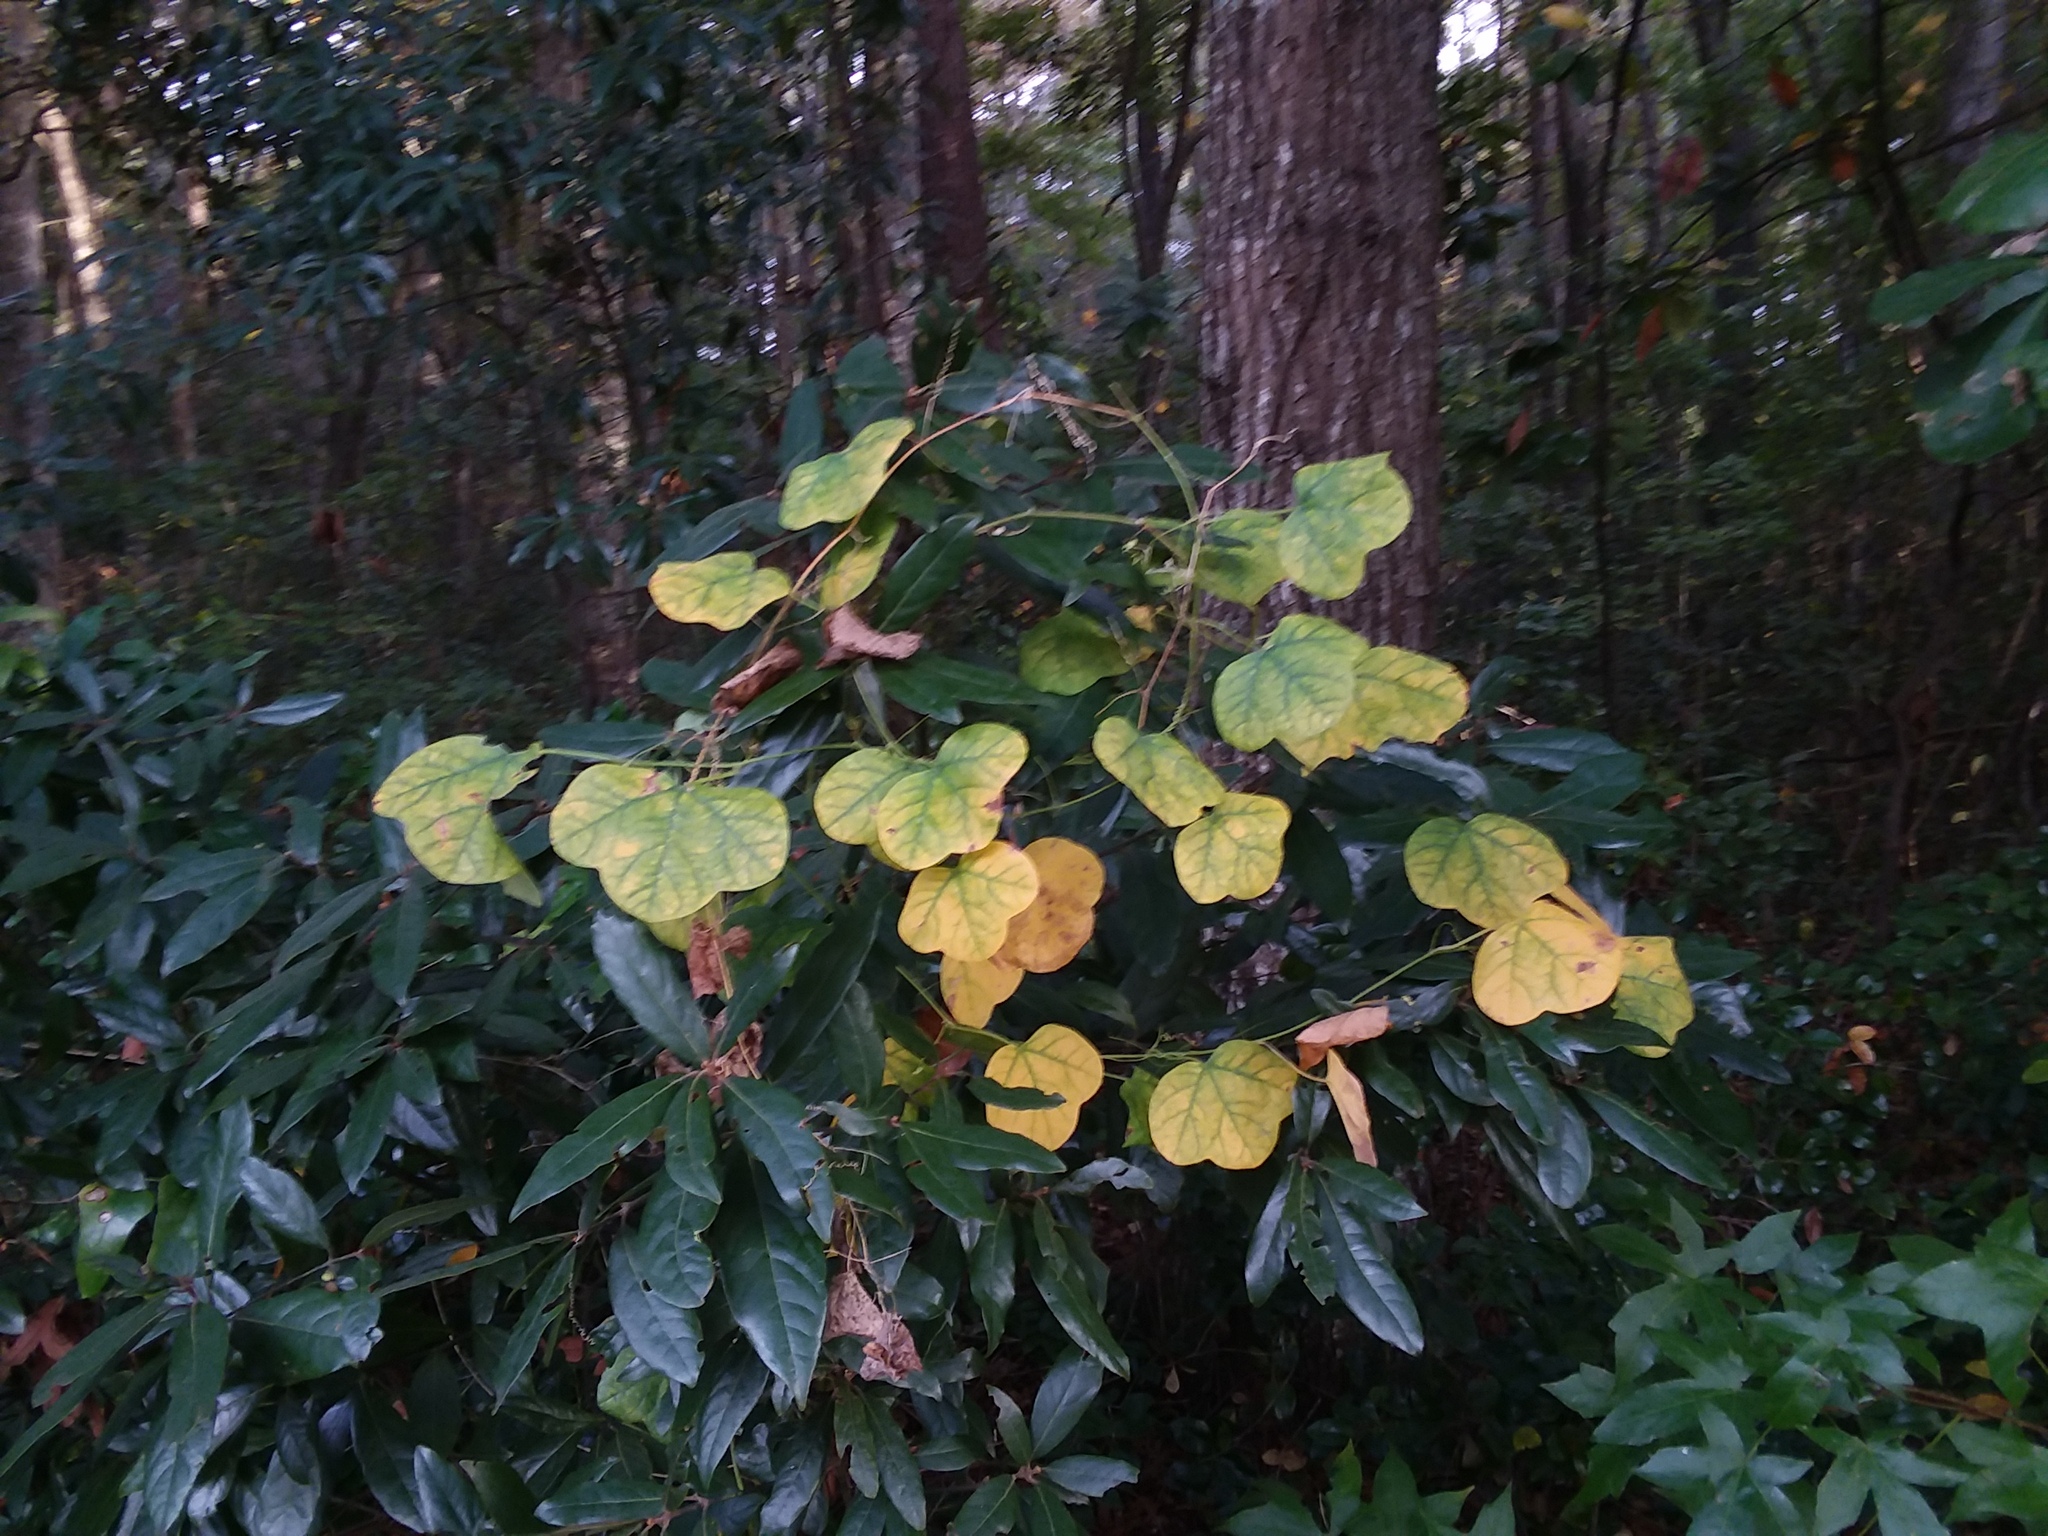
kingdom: Plantae
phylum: Tracheophyta
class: Magnoliopsida
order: Malpighiales
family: Passifloraceae
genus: Passiflora
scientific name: Passiflora lutea
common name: Yellow passionflower
